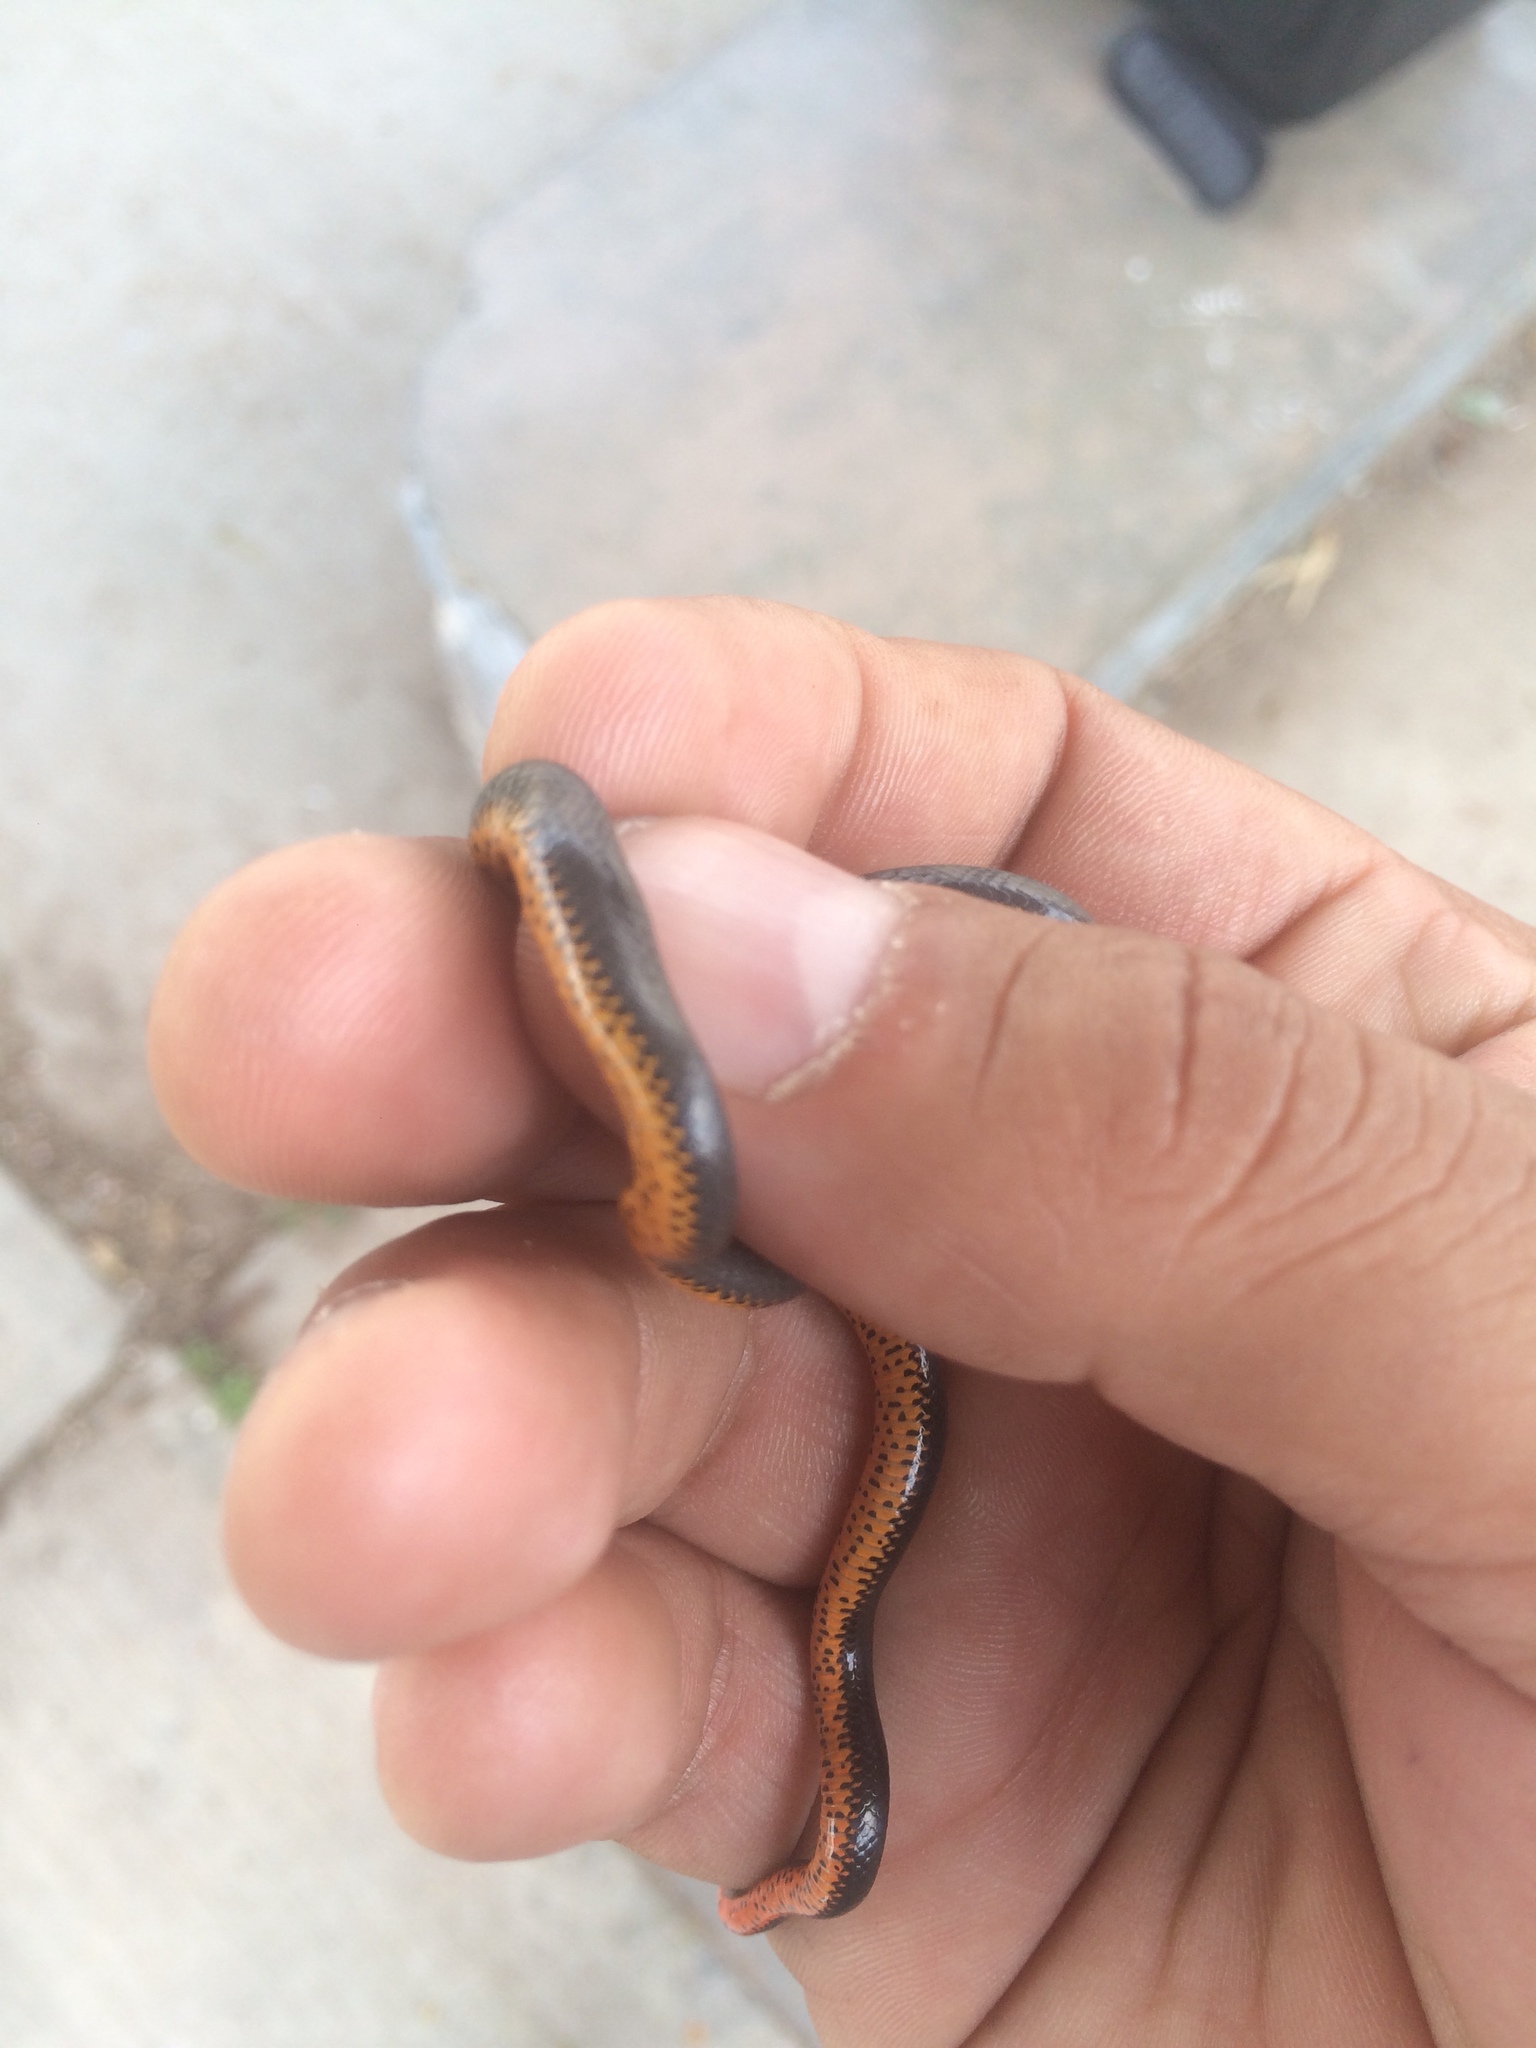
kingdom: Animalia
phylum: Chordata
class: Squamata
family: Colubridae
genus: Diadophis
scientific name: Diadophis punctatus
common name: Ringneck snake
